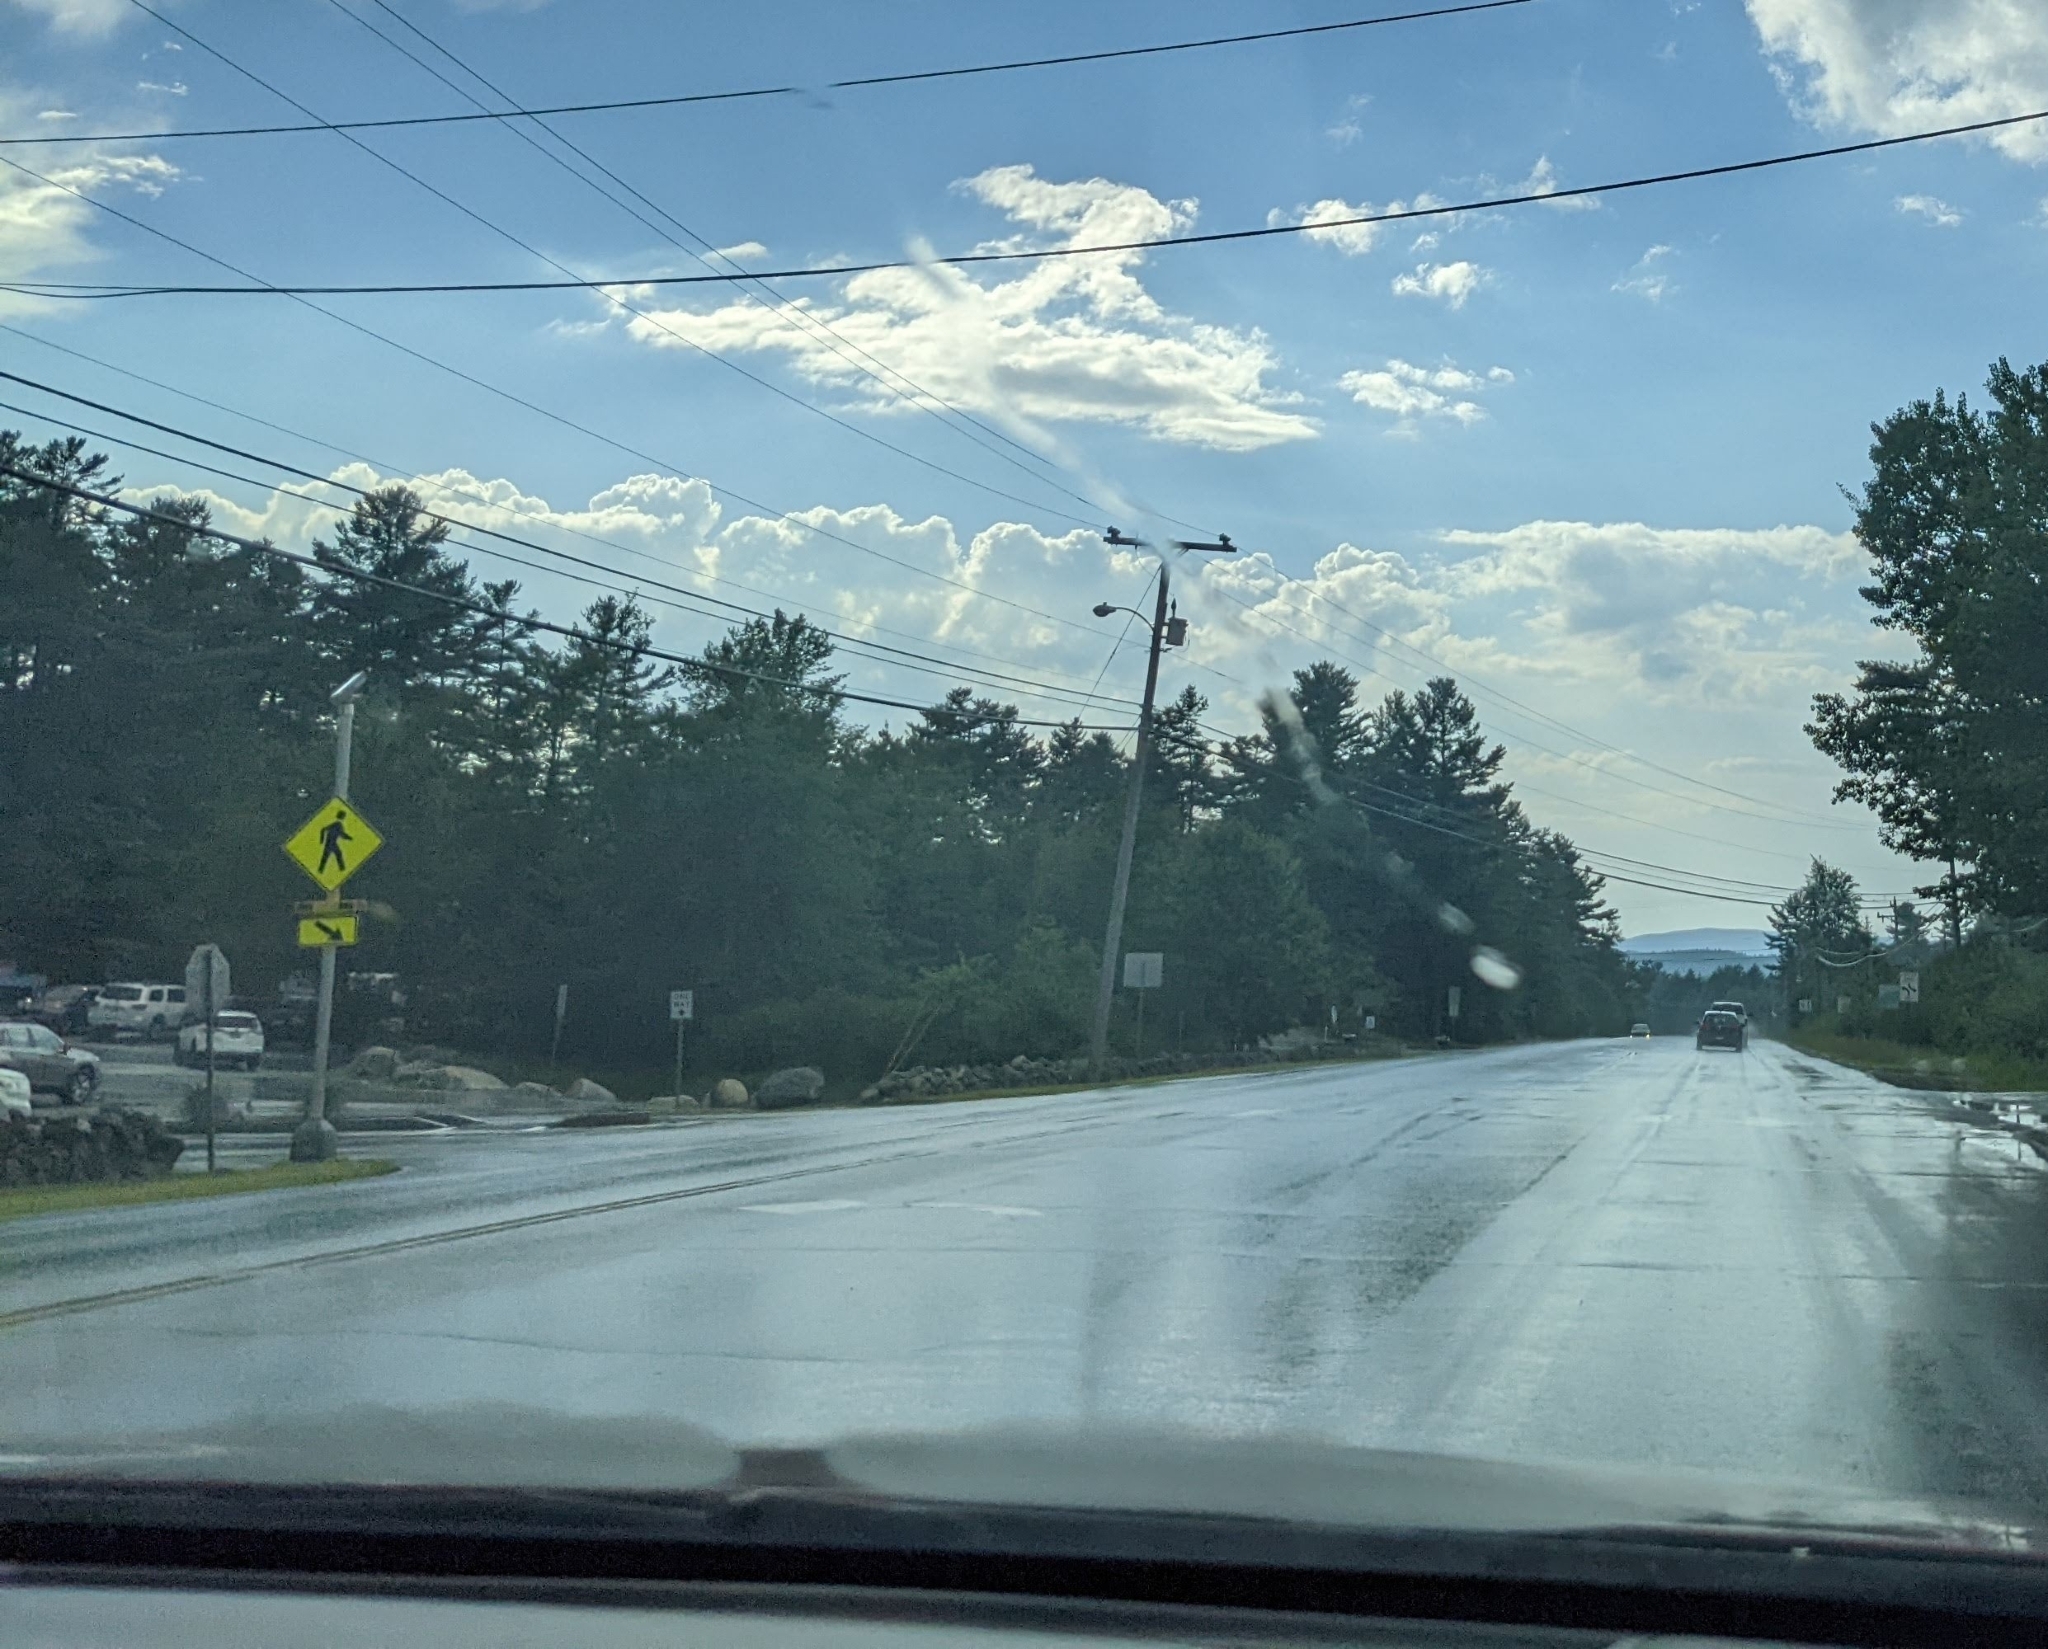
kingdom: Plantae
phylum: Tracheophyta
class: Pinopsida
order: Pinales
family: Pinaceae
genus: Pinus
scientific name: Pinus strobus
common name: Weymouth pine
